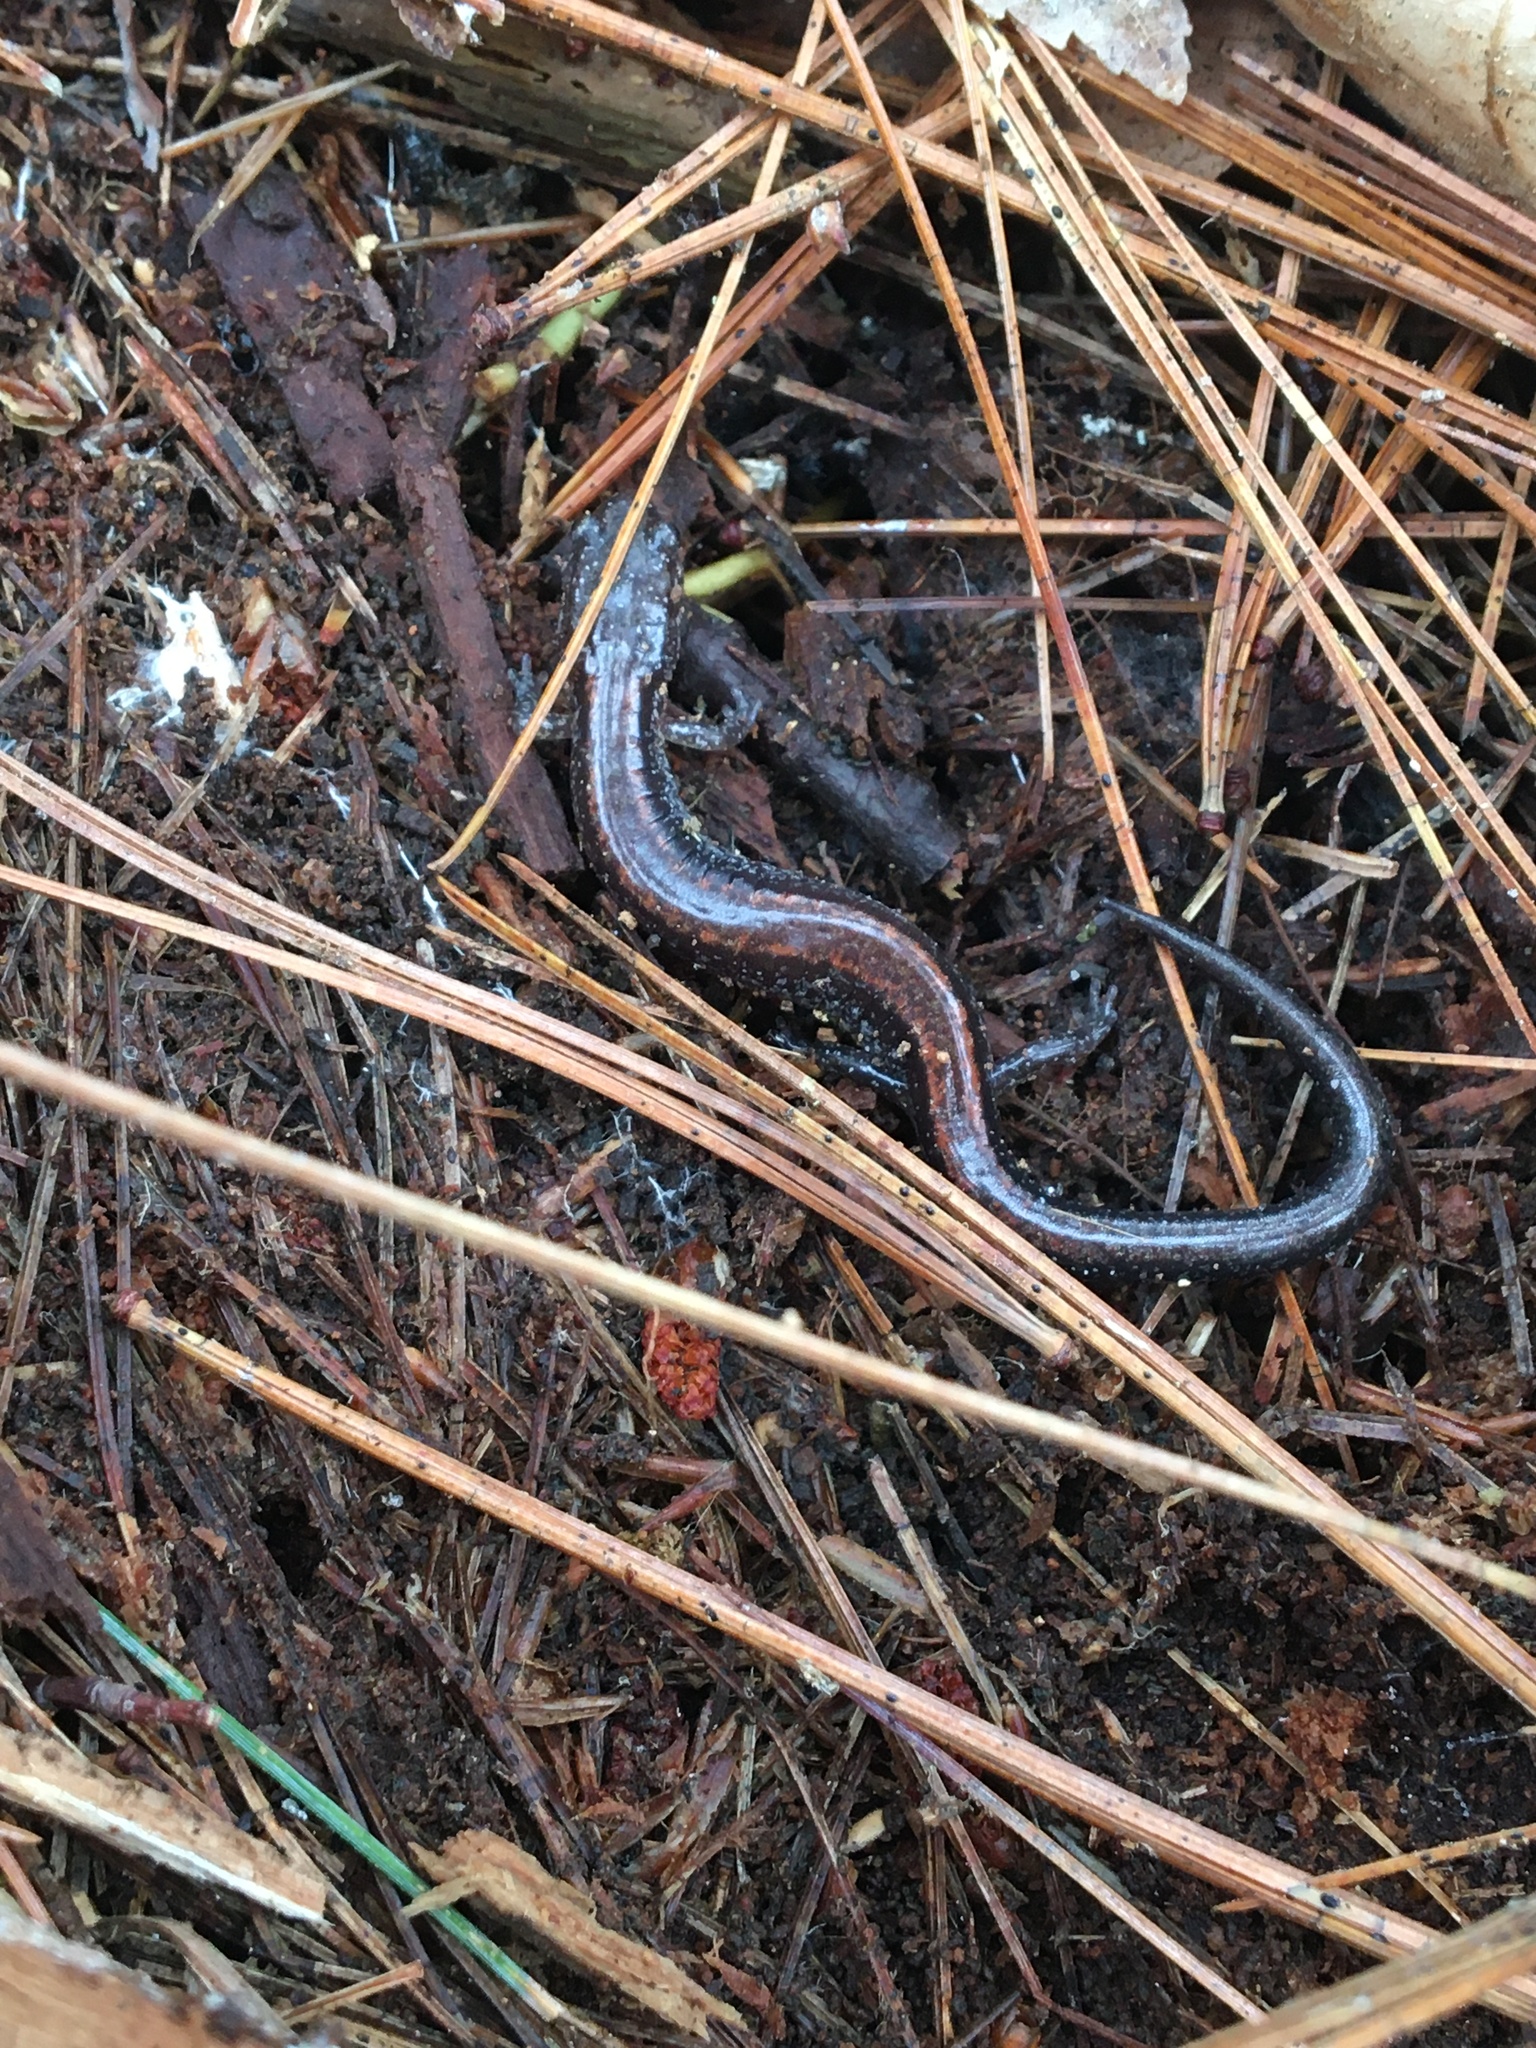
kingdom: Animalia
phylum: Chordata
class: Amphibia
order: Caudata
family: Plethodontidae
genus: Plethodon
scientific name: Plethodon cinereus
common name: Redback salamander
